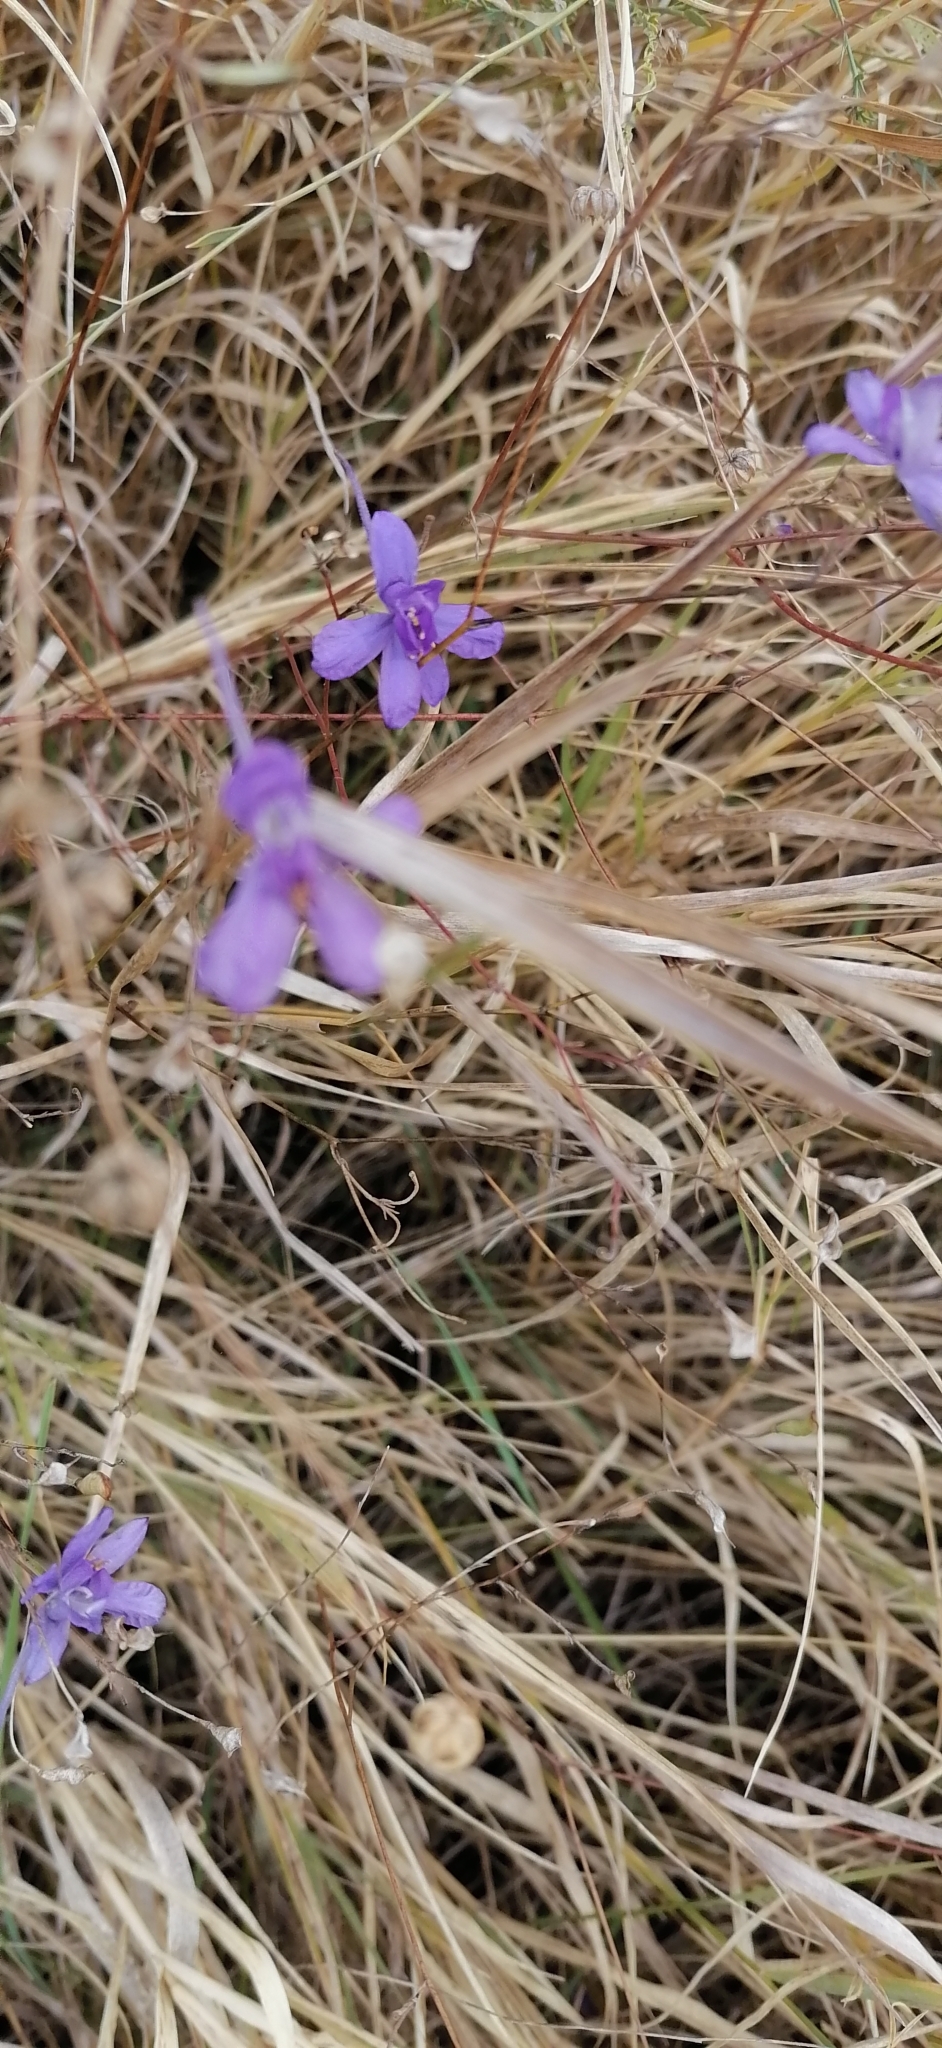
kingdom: Plantae
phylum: Tracheophyta
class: Magnoliopsida
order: Ranunculales
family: Ranunculaceae
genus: Delphinium
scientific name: Delphinium consolida
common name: Branching larkspur
